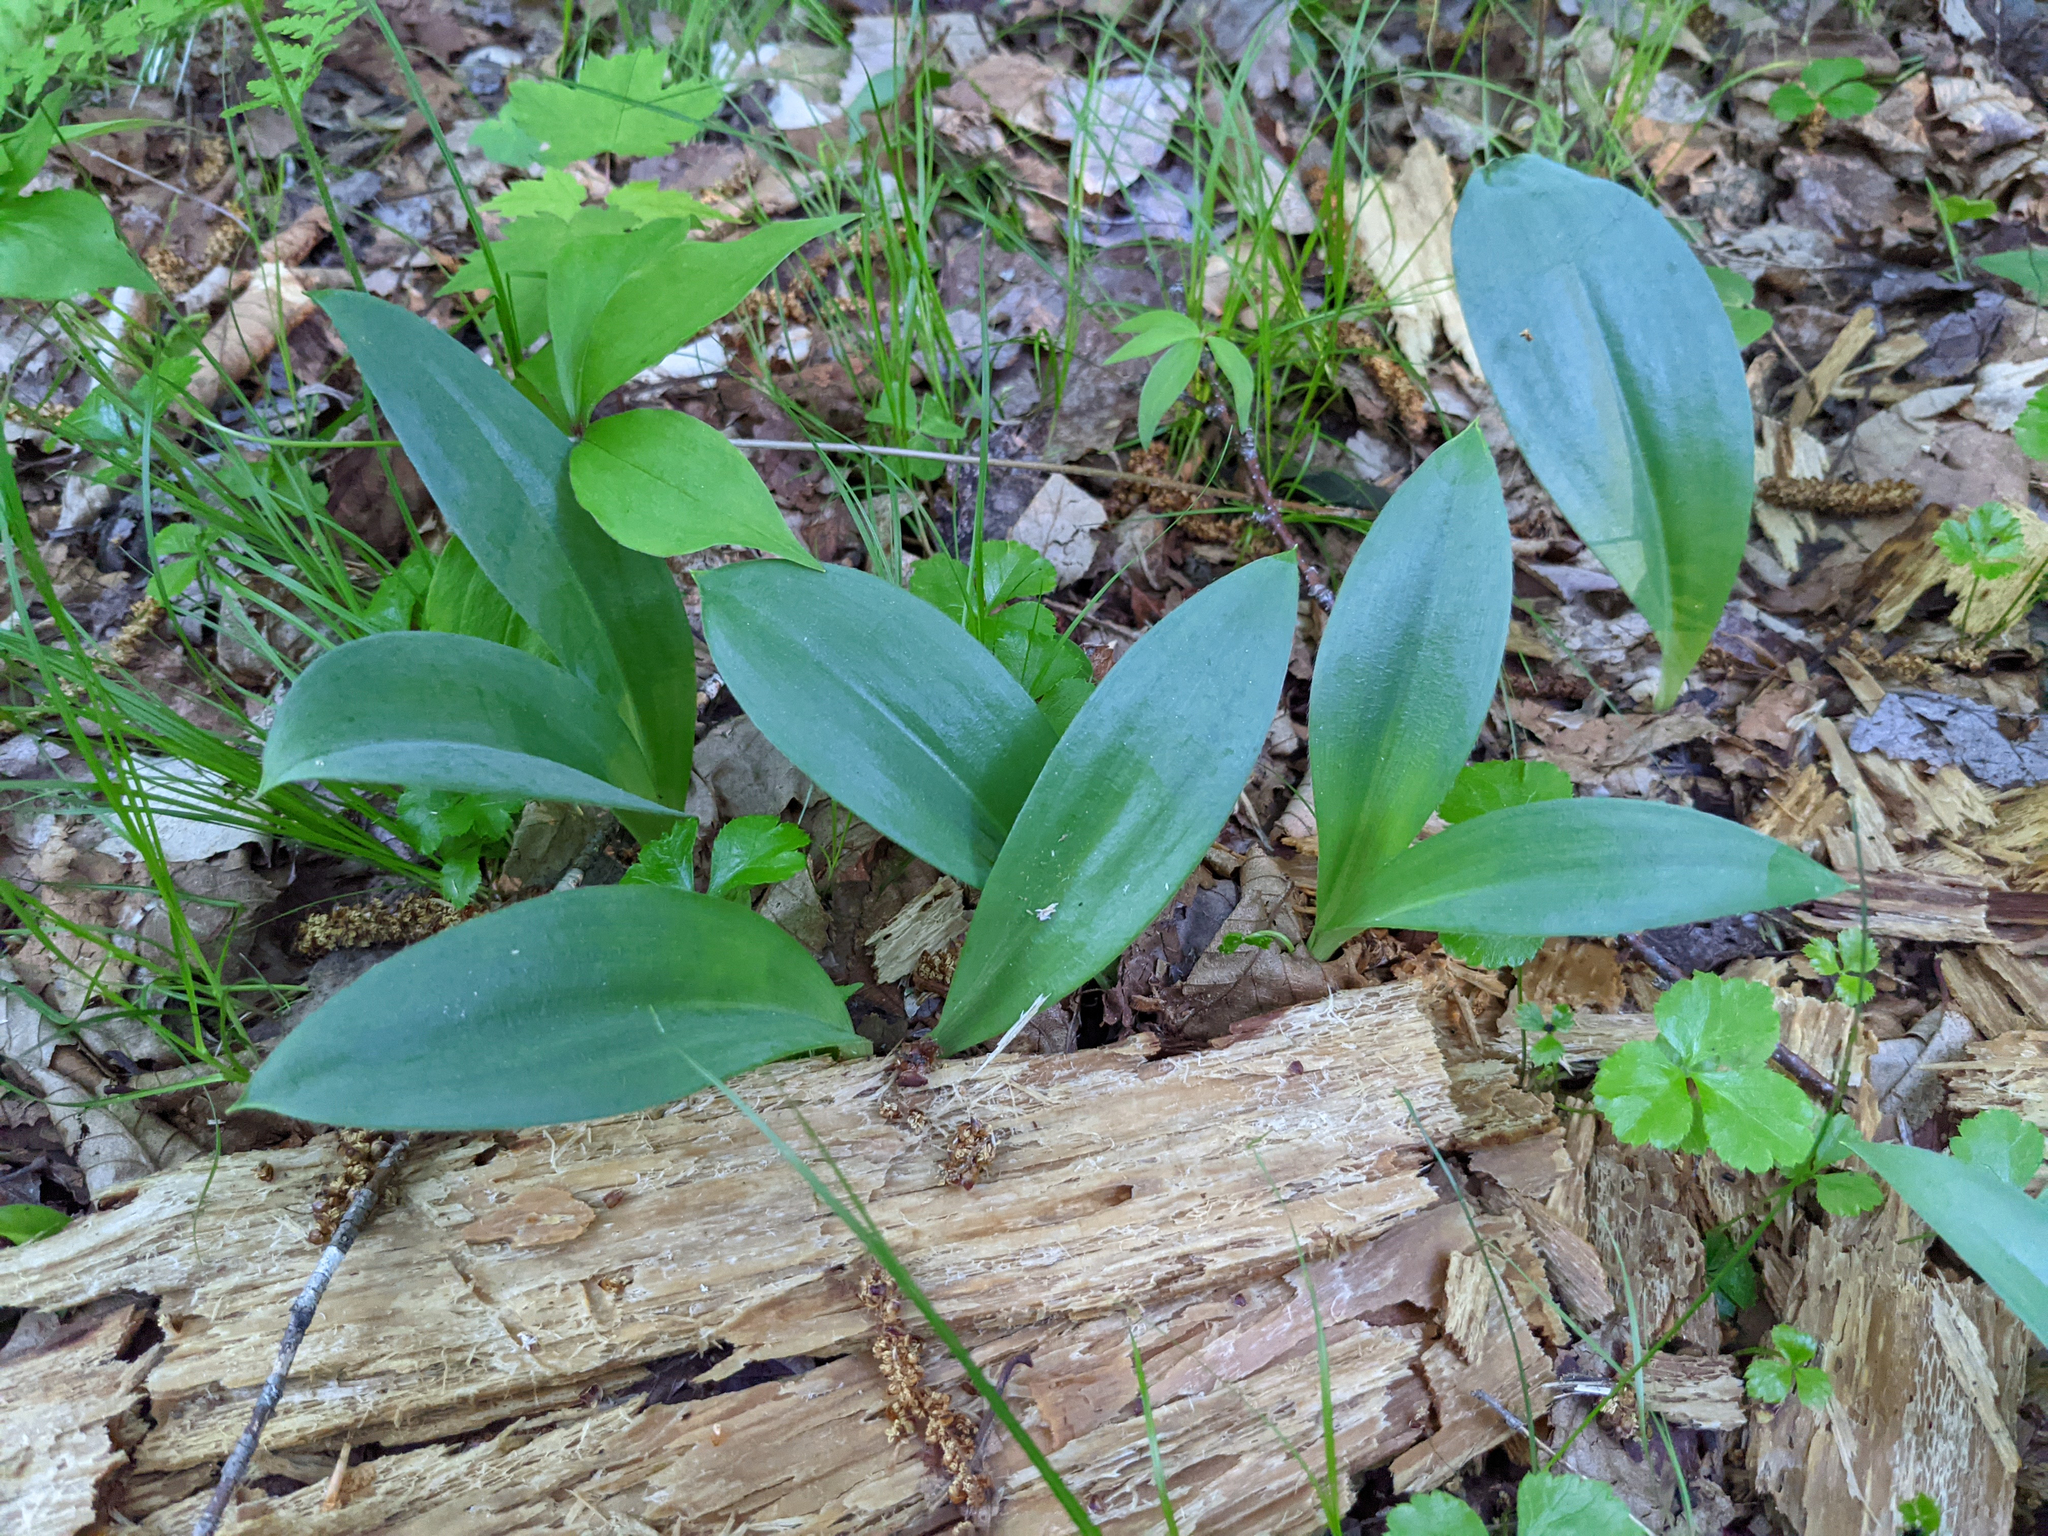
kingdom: Plantae
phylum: Tracheophyta
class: Liliopsida
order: Liliales
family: Liliaceae
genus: Clintonia
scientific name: Clintonia borealis
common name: Yellow clintonia
